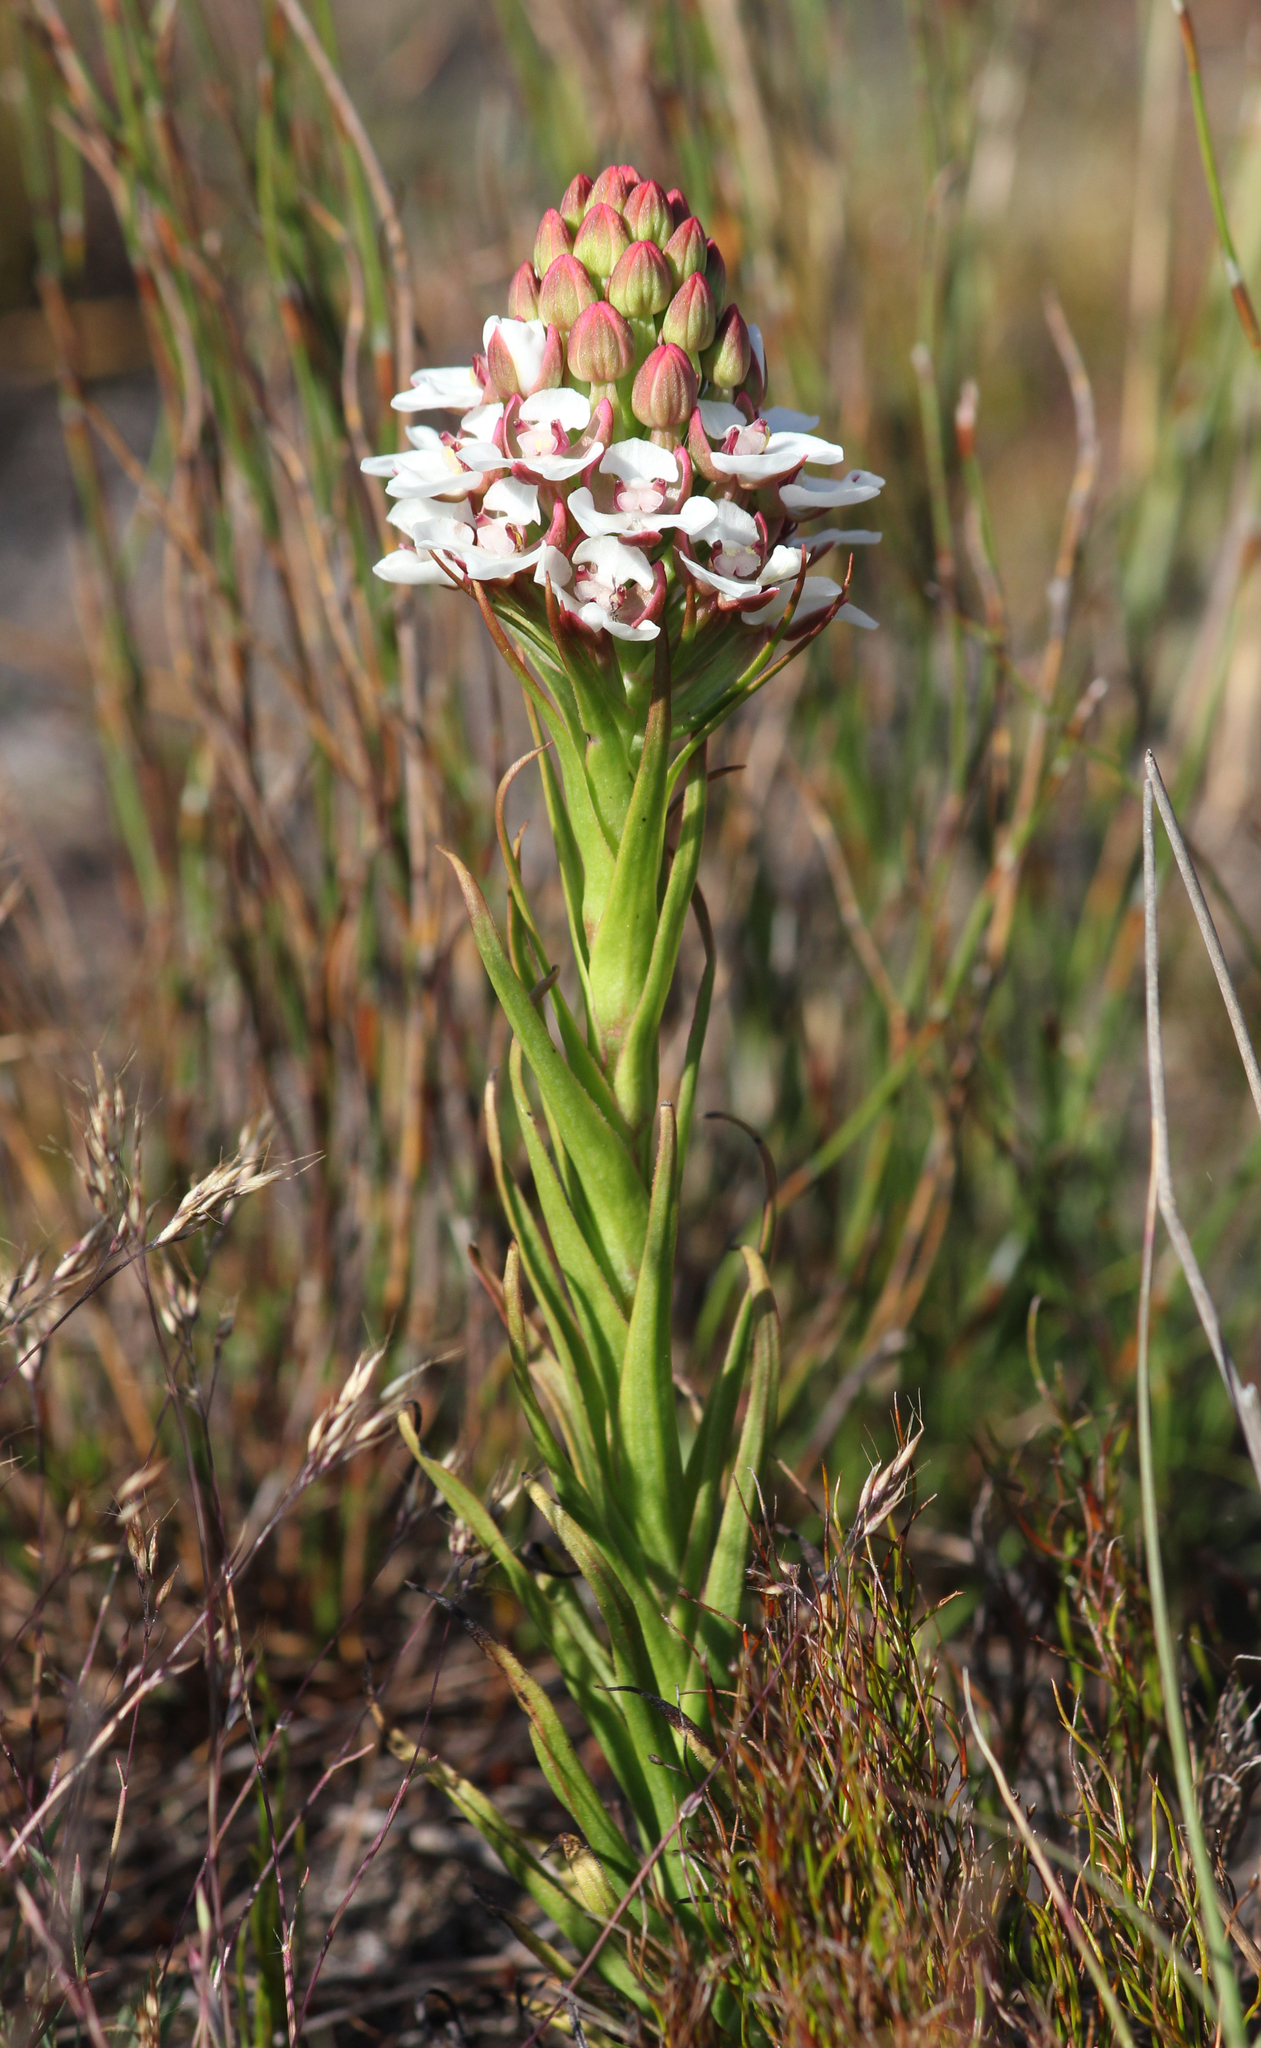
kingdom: Plantae
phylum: Tracheophyta
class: Liliopsida
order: Asparagales
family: Orchidaceae
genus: Ceratandra
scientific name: Ceratandra globosa
